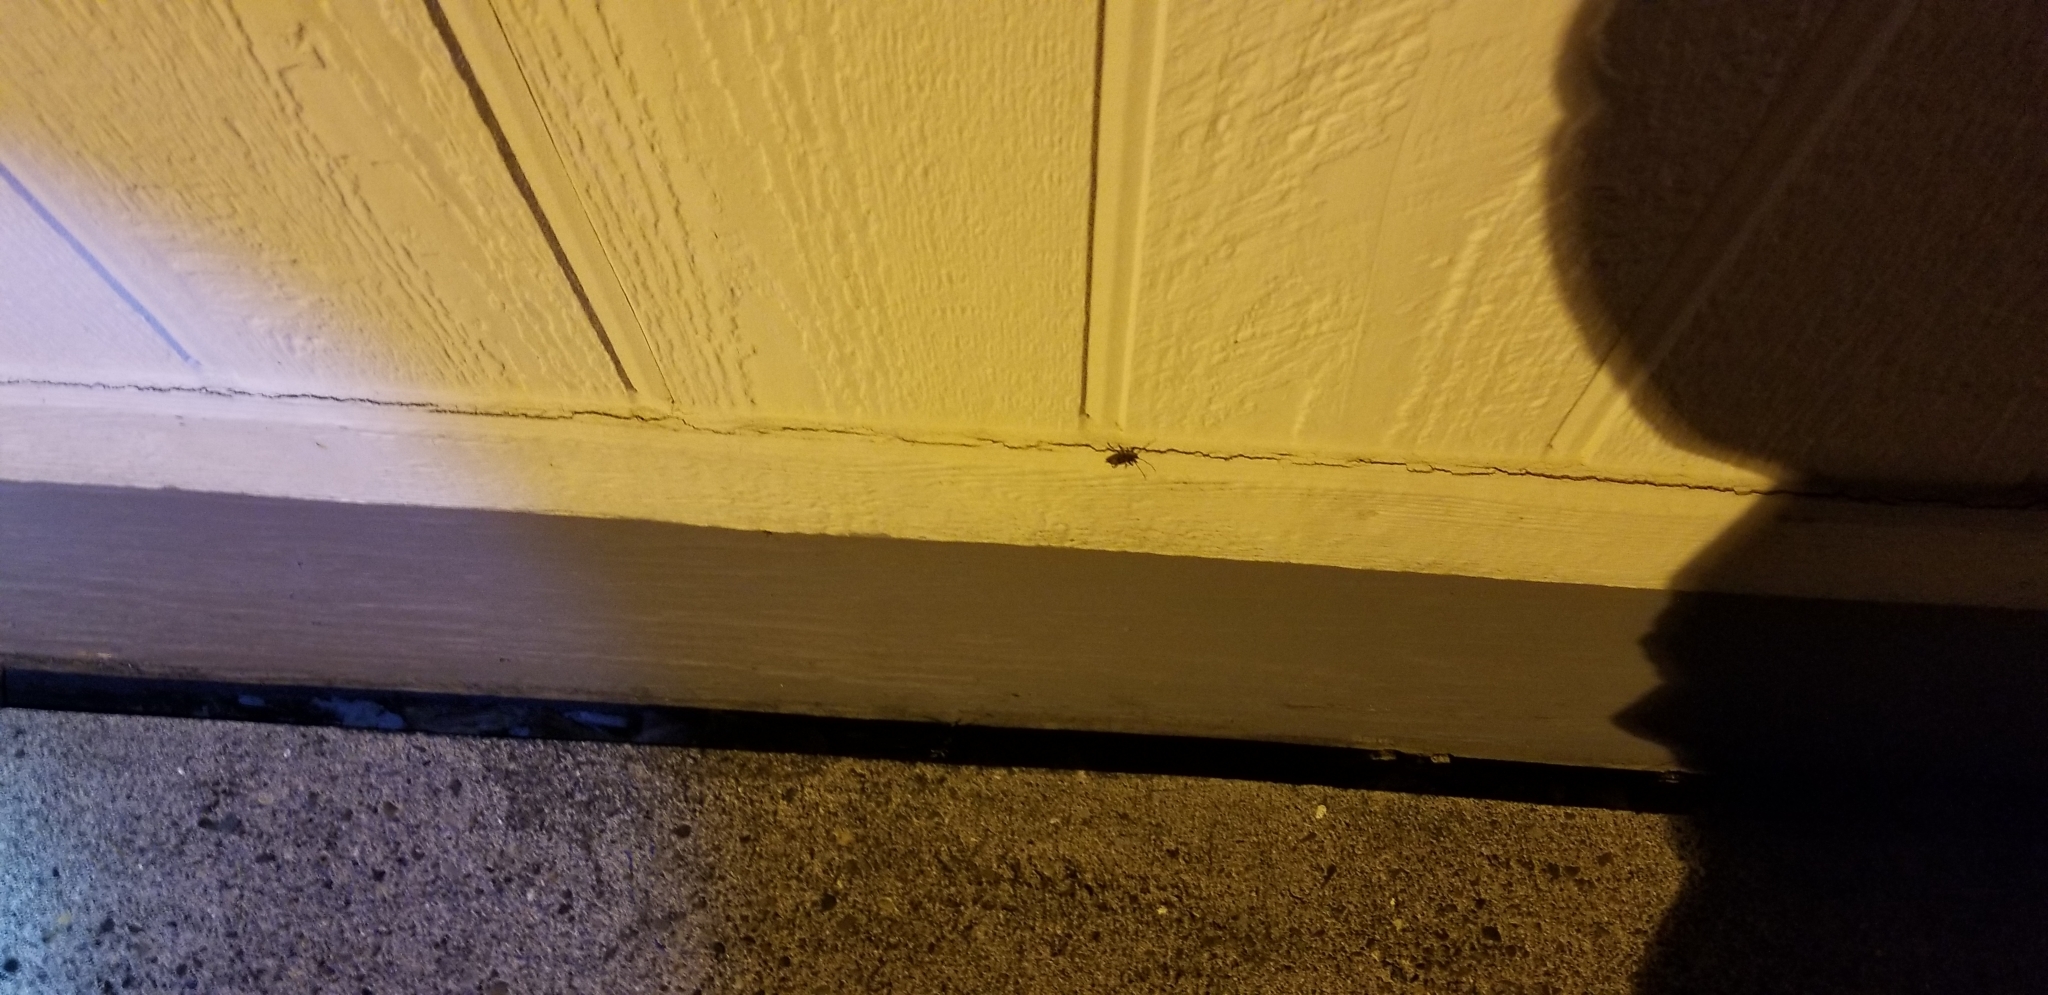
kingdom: Animalia
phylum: Arthropoda
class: Insecta
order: Coleoptera
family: Cerambycidae
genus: Plectrura
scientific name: Plectrura spinicauda
